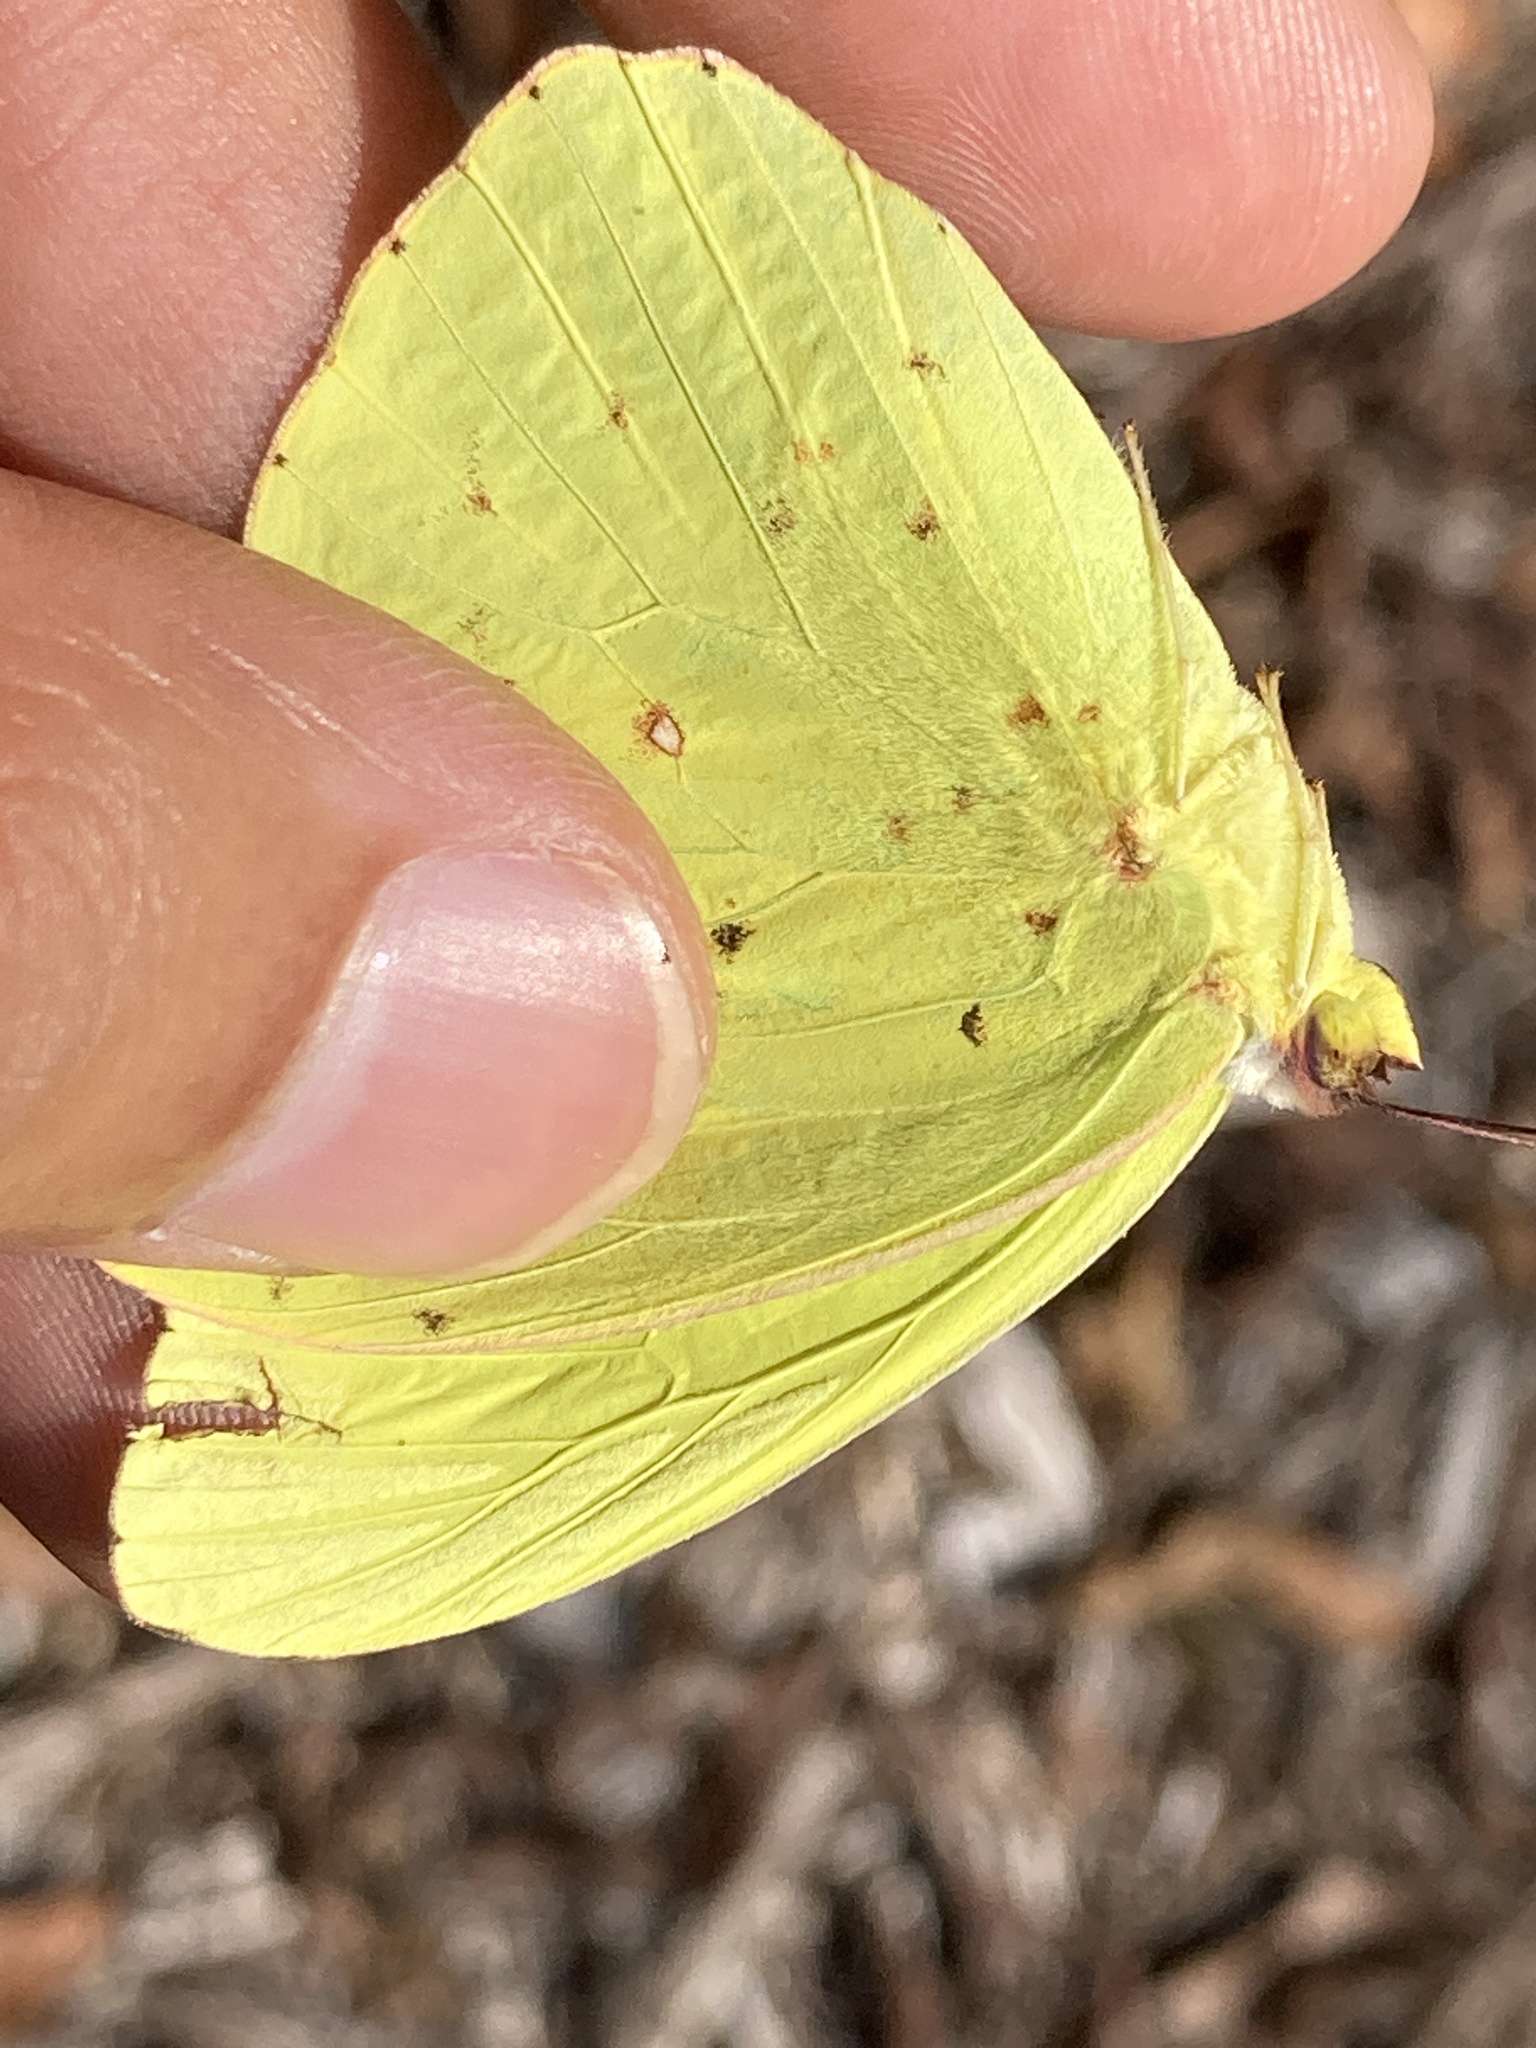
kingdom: Animalia
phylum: Arthropoda
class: Insecta
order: Lepidoptera
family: Pieridae
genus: Phoebis
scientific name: Phoebis sennae
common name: Cloudless sulphur
